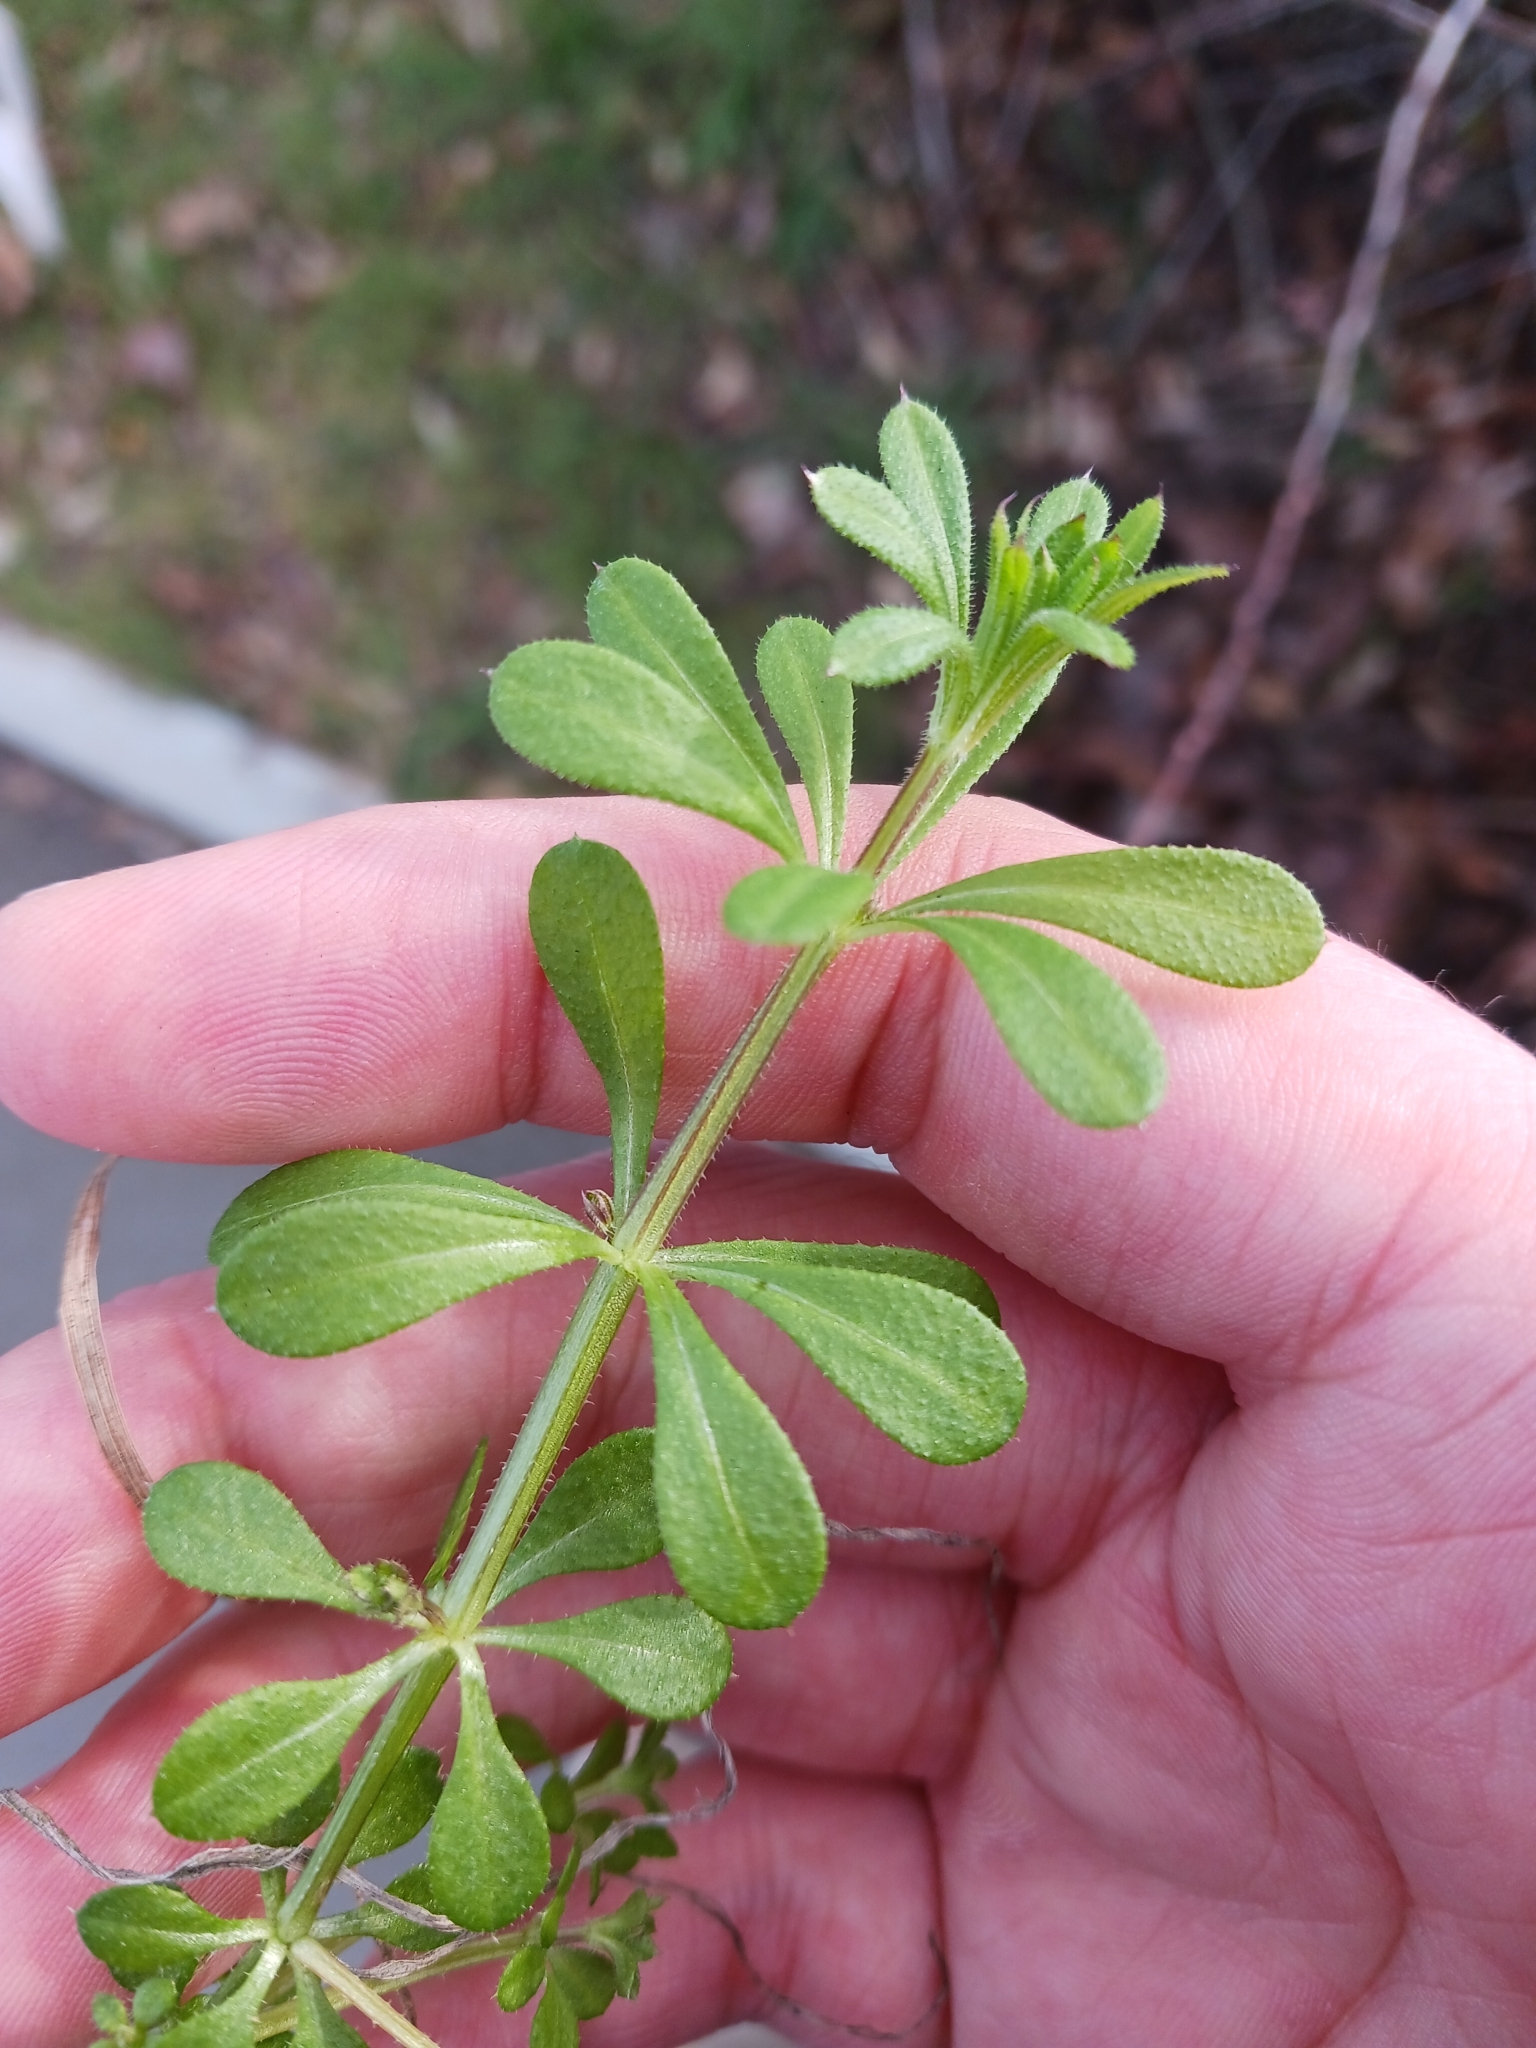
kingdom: Plantae
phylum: Tracheophyta
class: Magnoliopsida
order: Gentianales
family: Rubiaceae
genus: Galium
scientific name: Galium aparine
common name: Cleavers
